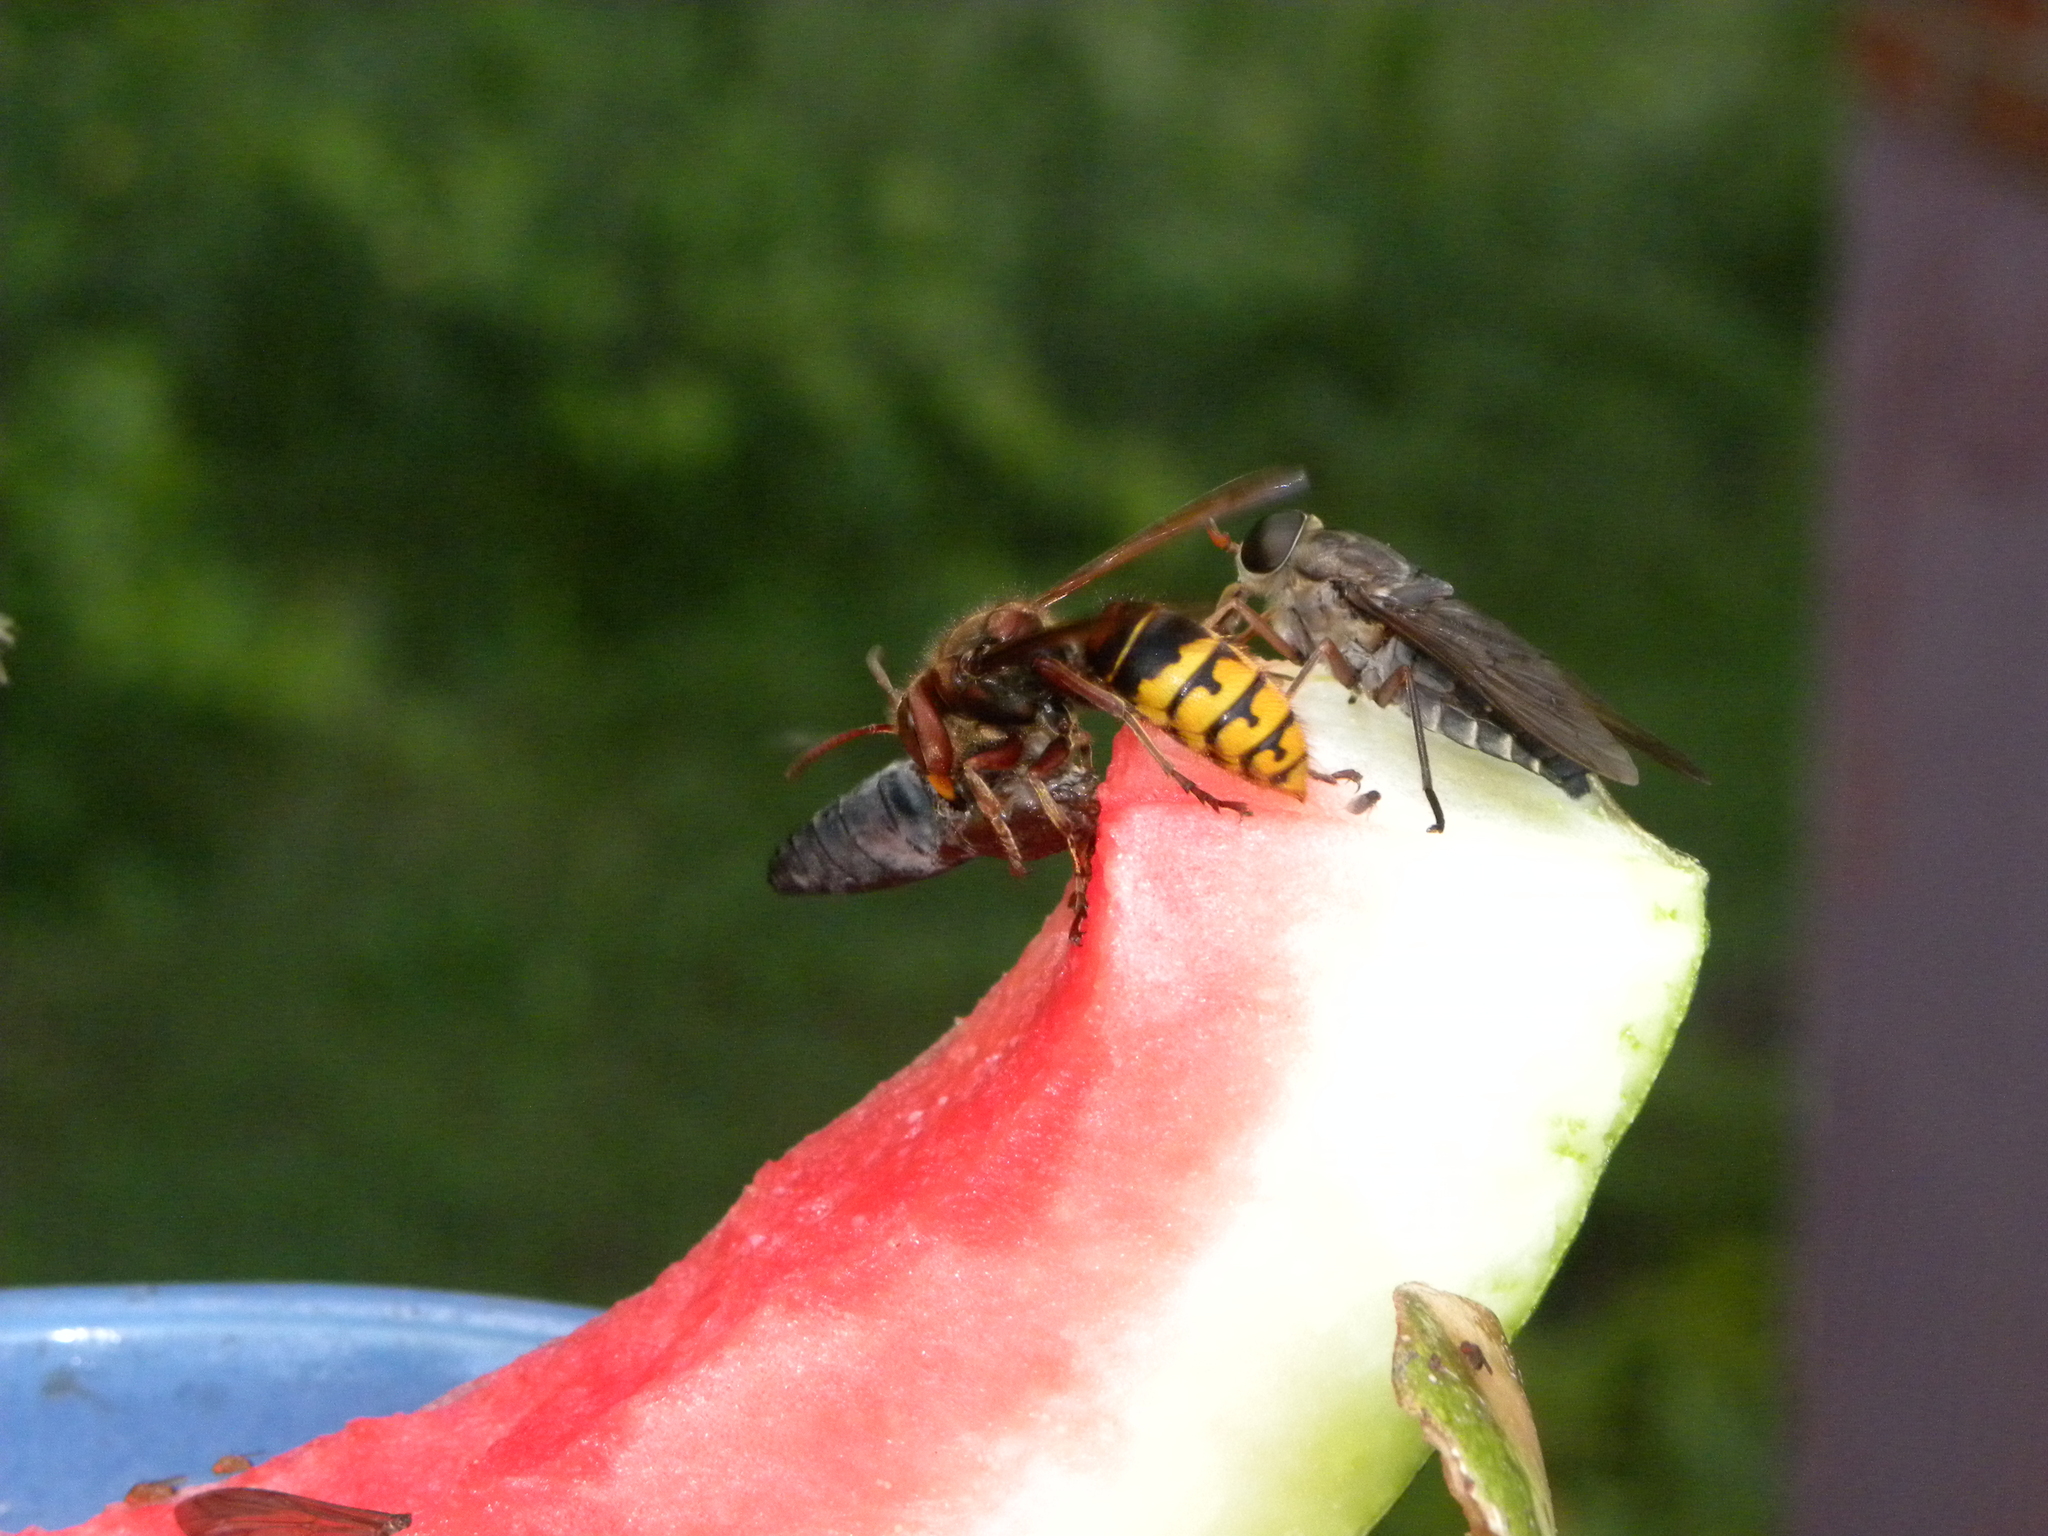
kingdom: Animalia
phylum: Arthropoda
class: Insecta
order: Hymenoptera
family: Vespidae
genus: Vespa
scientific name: Vespa crabro
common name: Hornet
